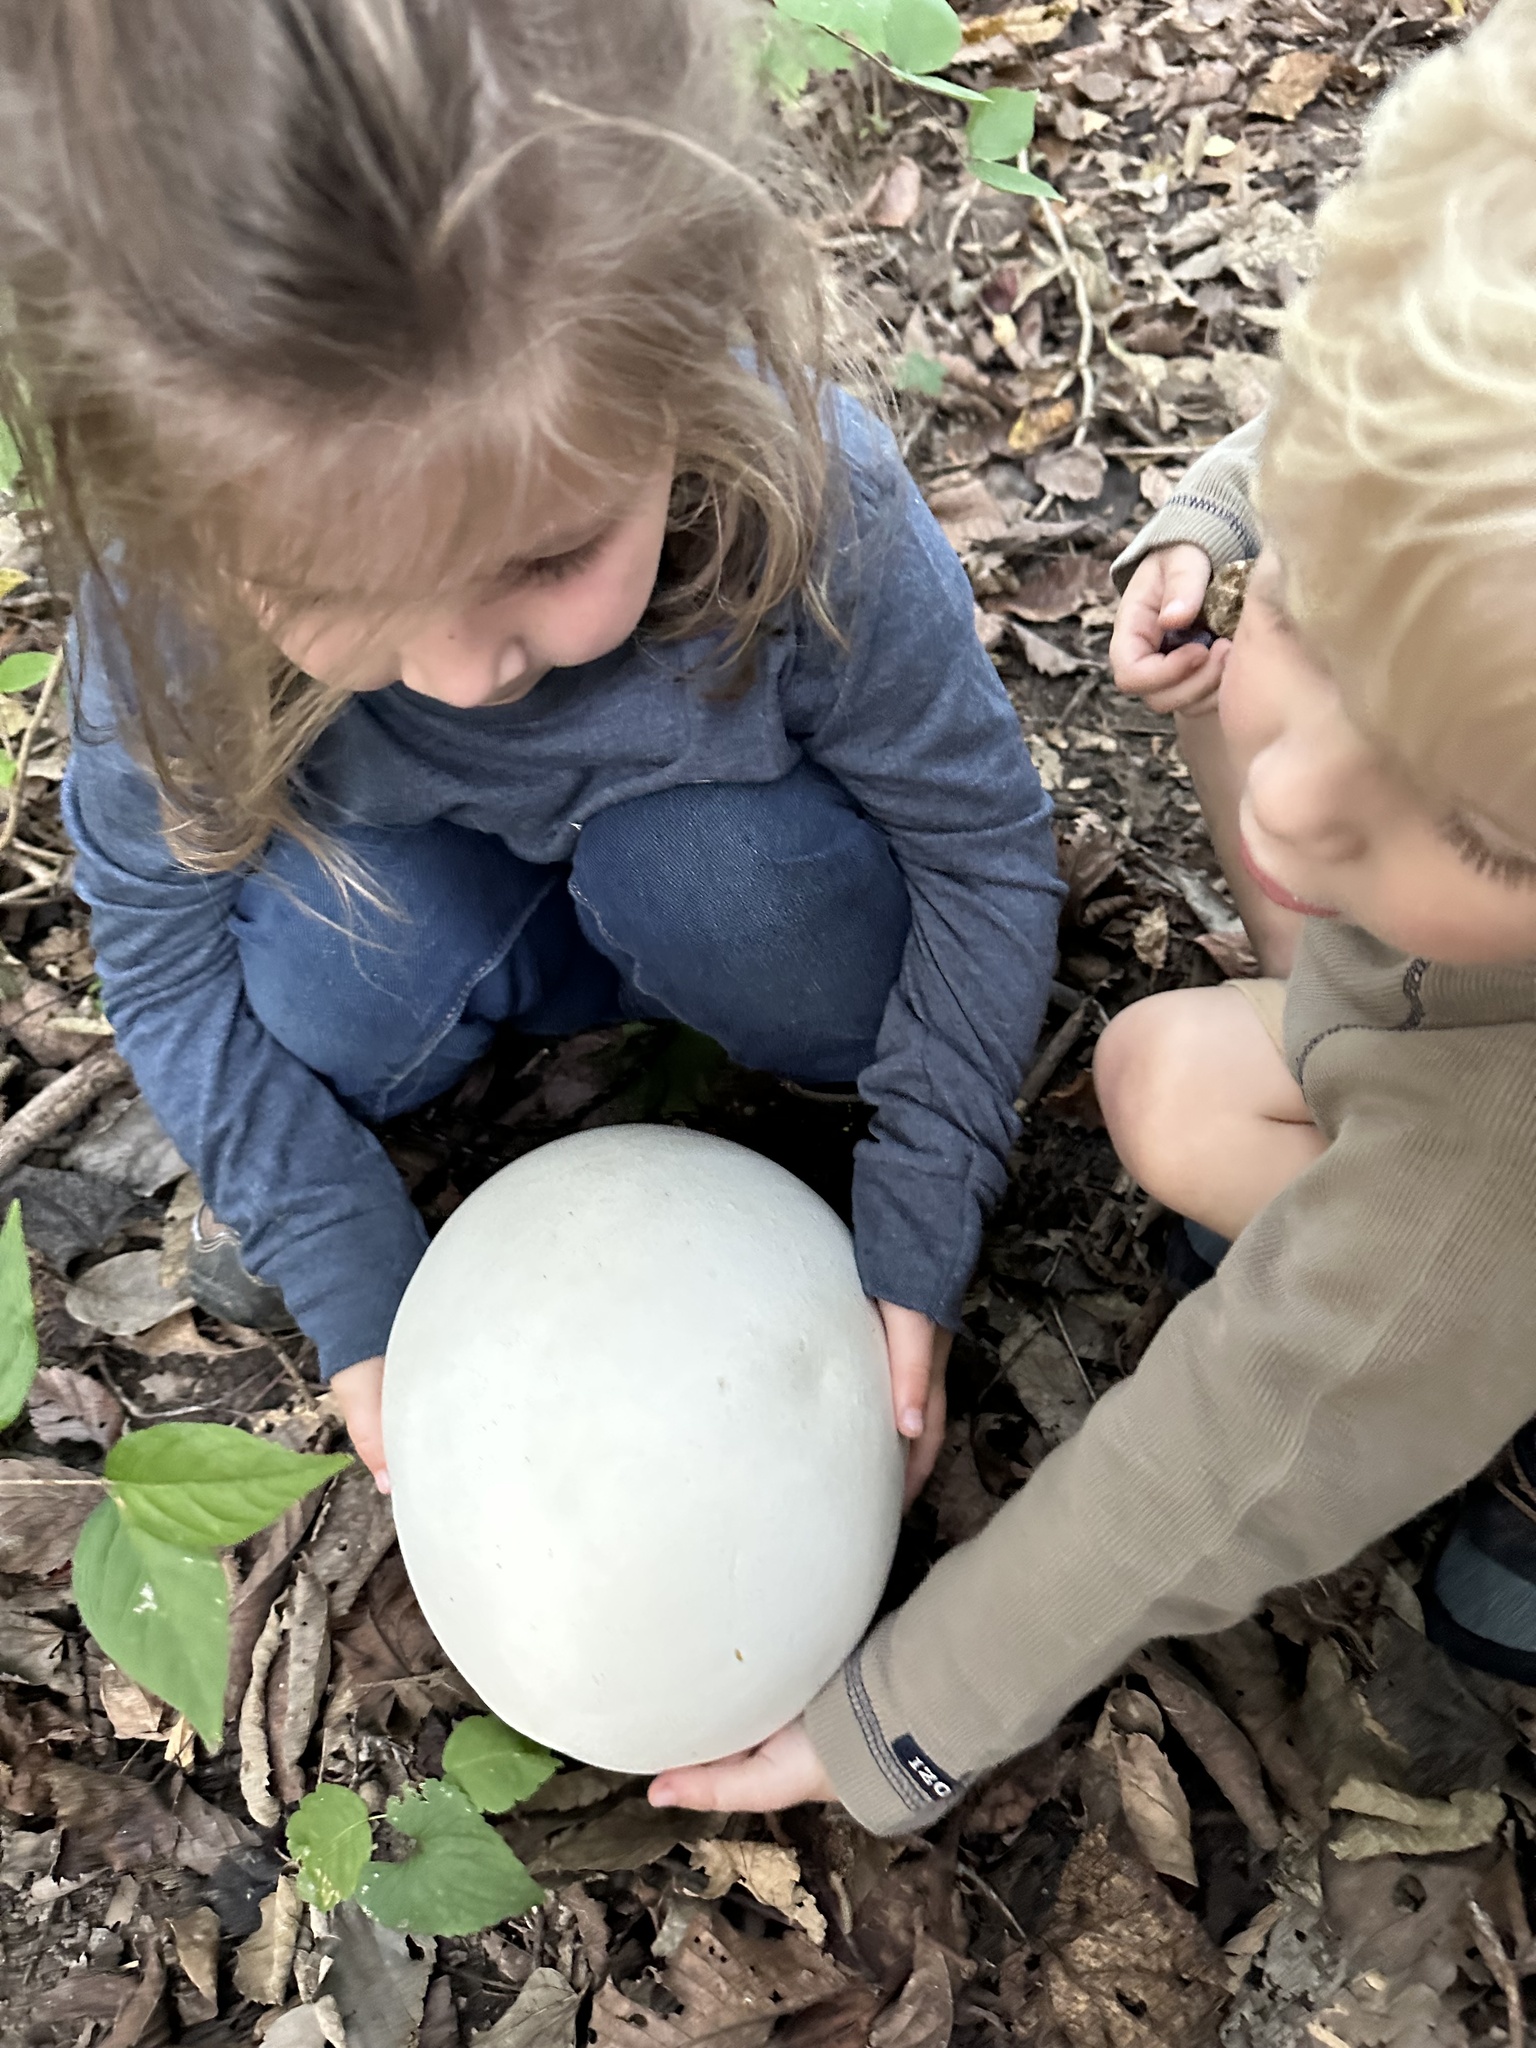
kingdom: Fungi
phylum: Basidiomycota
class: Agaricomycetes
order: Agaricales
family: Lycoperdaceae
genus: Calvatia
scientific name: Calvatia gigantea
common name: Giant puffball
